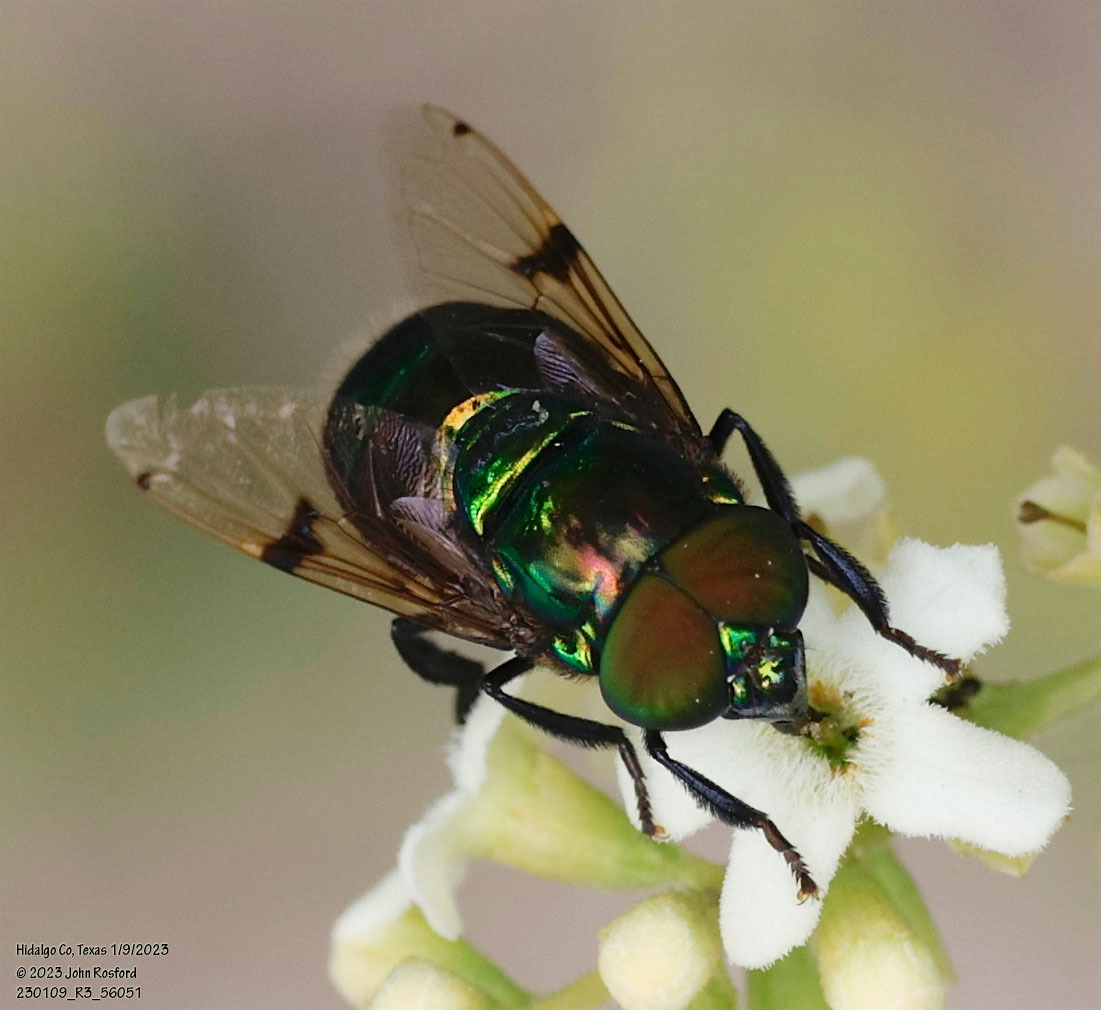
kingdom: Animalia
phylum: Arthropoda
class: Insecta
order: Diptera
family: Syrphidae
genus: Ornidia
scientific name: Ornidia obesa
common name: Syrphid fly
